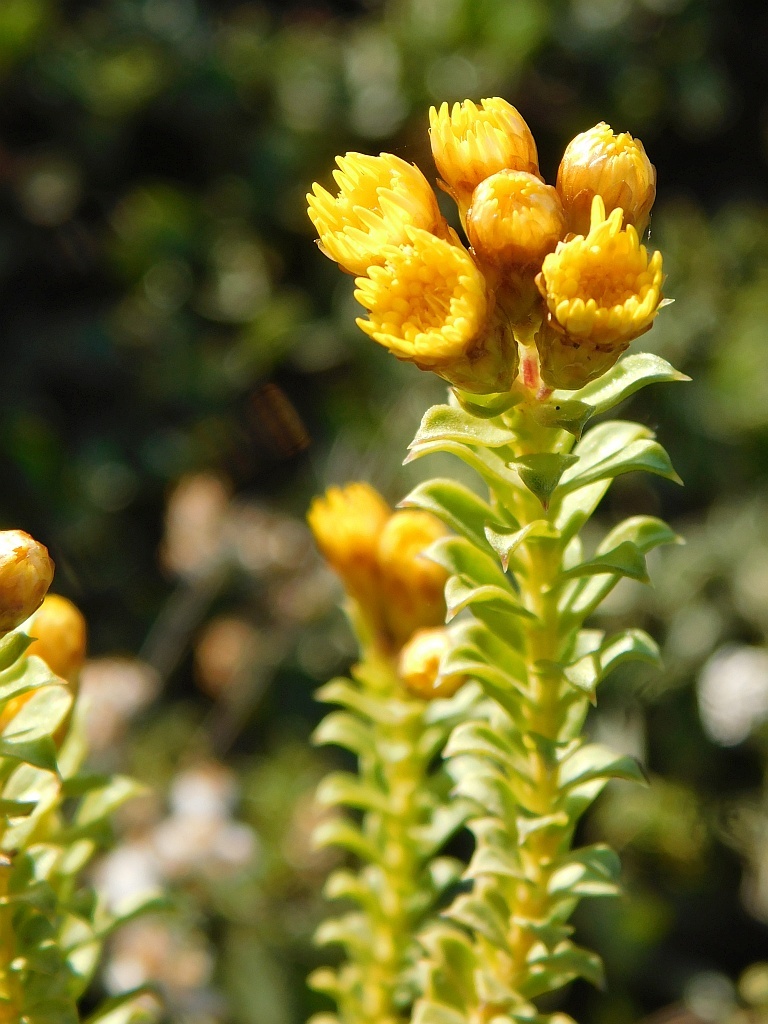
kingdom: Plantae
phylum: Tracheophyta
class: Magnoliopsida
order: Asterales
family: Asteraceae
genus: Oedera
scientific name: Oedera squarrosa
